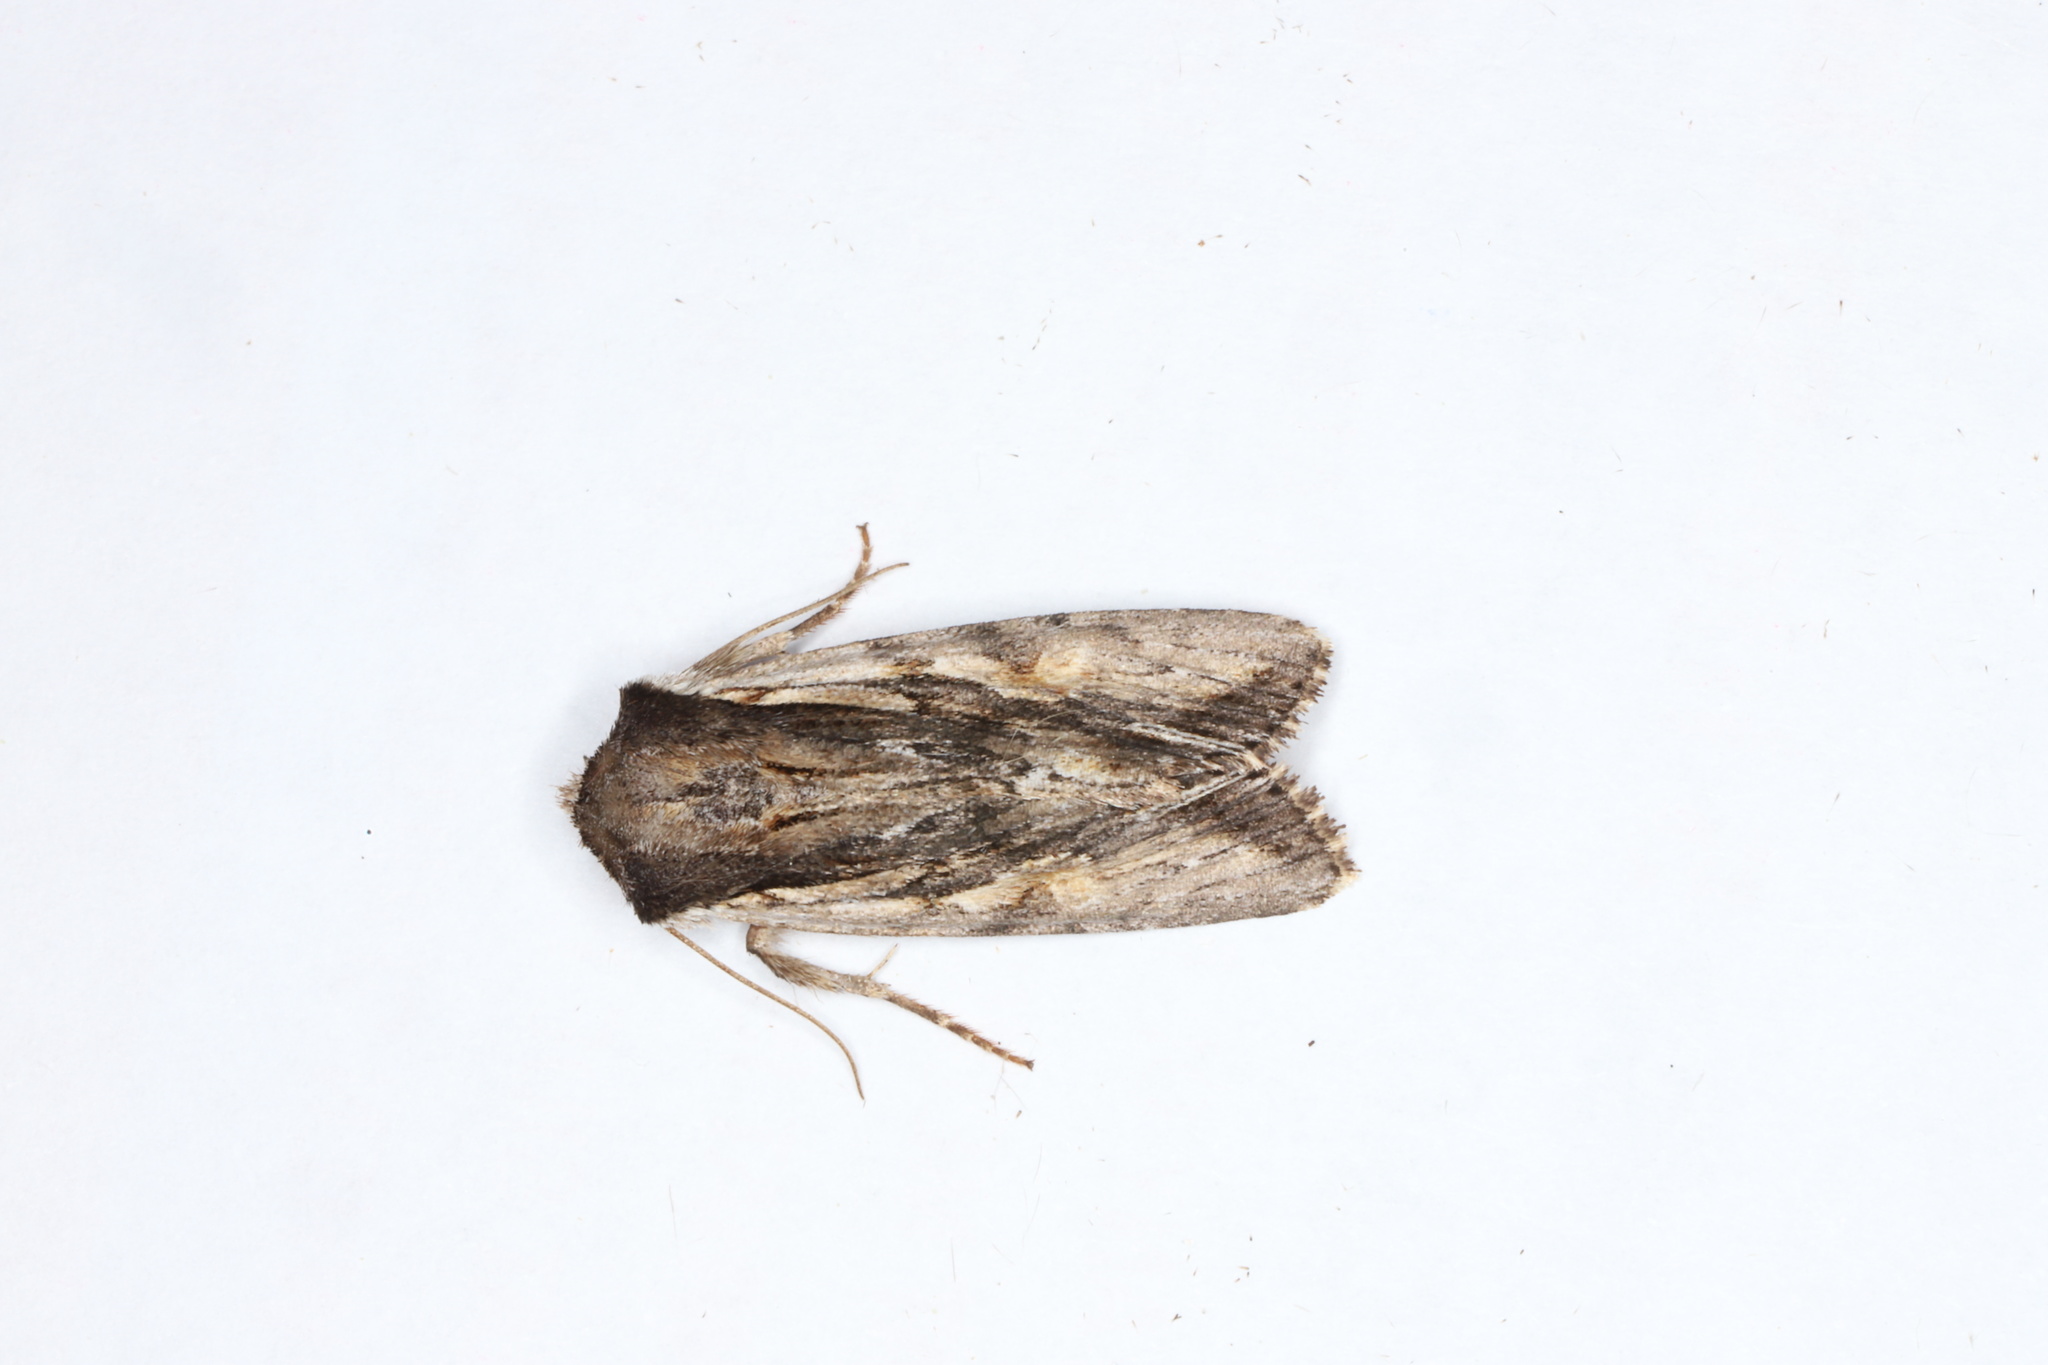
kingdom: Animalia
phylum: Arthropoda
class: Insecta
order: Lepidoptera
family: Noctuidae
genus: Achatia
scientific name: Achatia evicta
